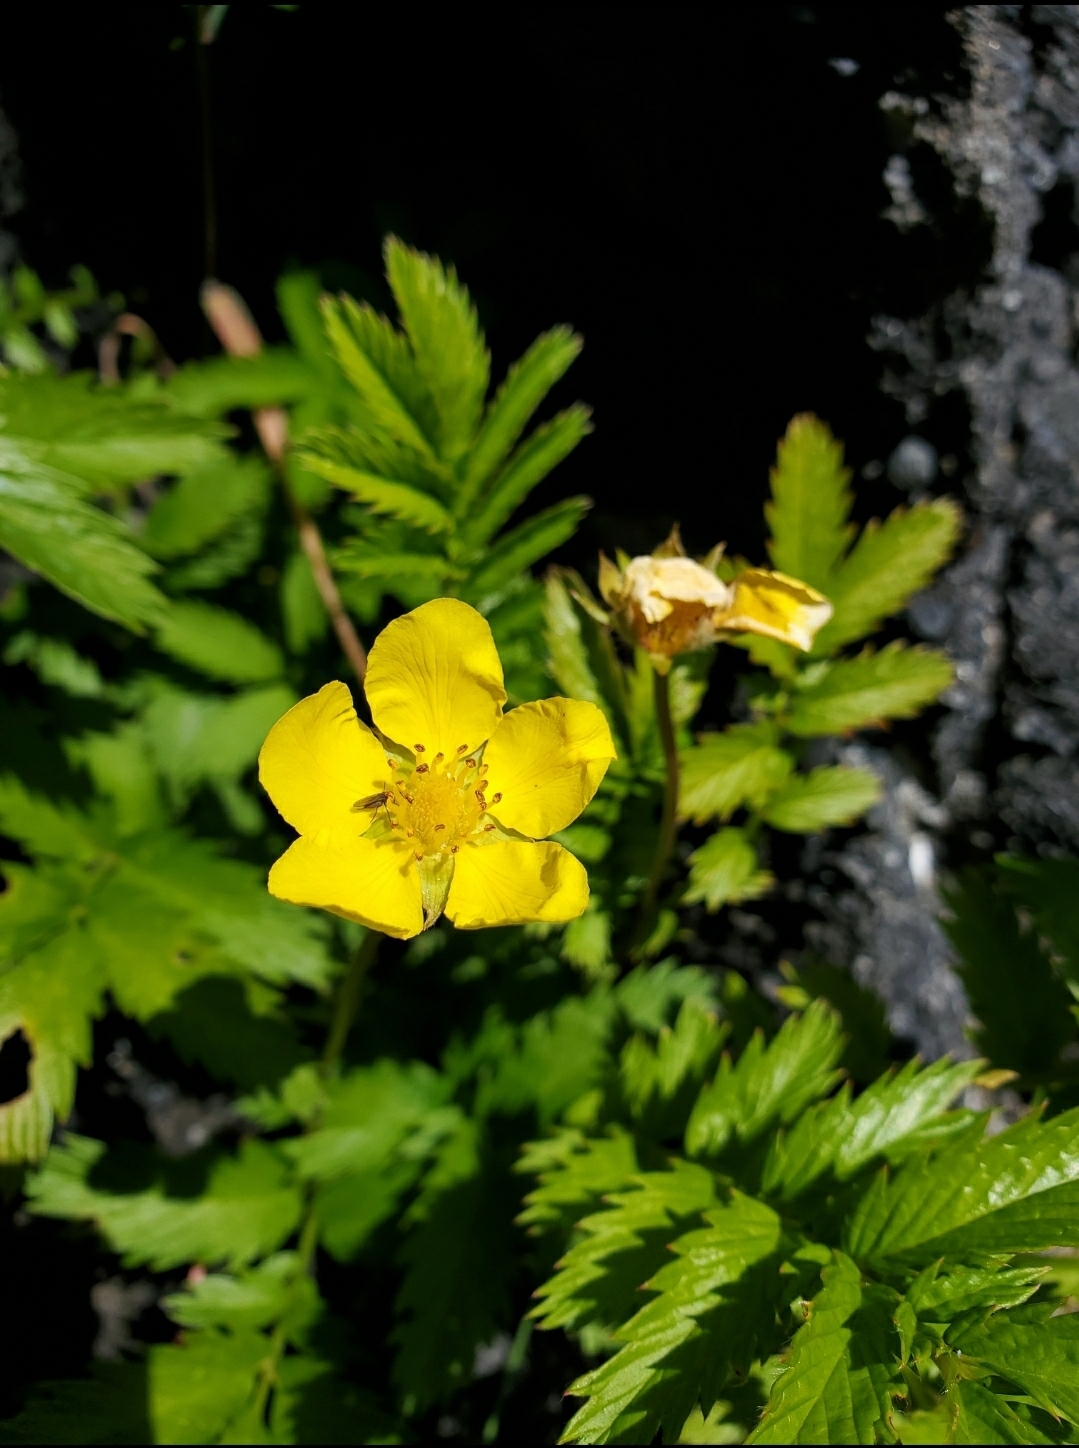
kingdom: Plantae
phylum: Tracheophyta
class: Magnoliopsida
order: Rosales
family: Rosaceae
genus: Argentina
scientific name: Argentina anserina
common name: Common silverweed
